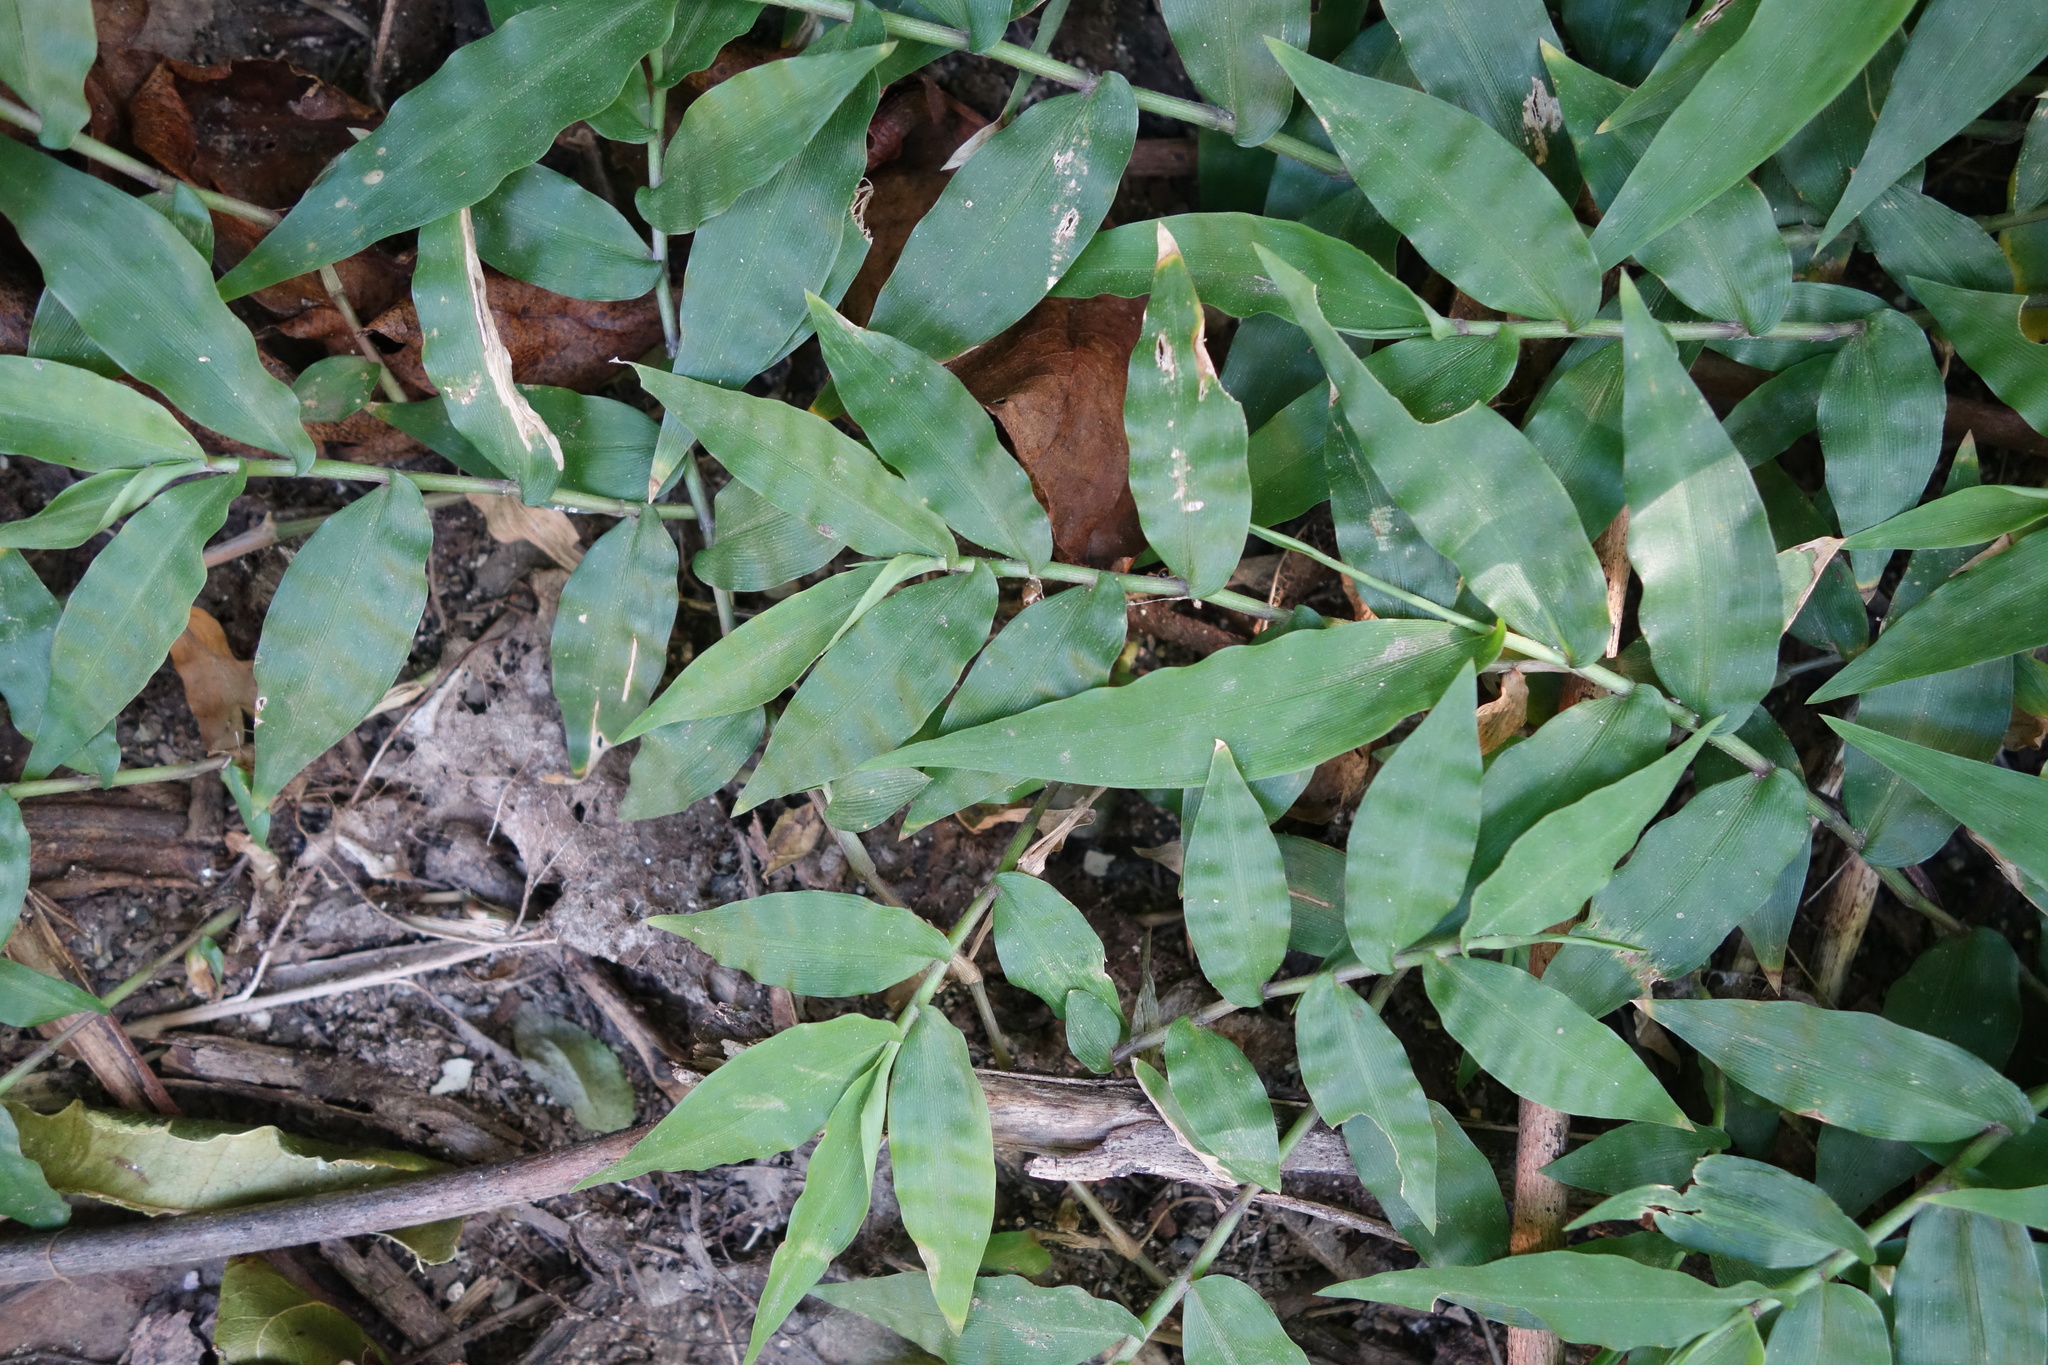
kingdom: Plantae
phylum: Tracheophyta
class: Liliopsida
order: Poales
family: Poaceae
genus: Oplismenus
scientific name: Oplismenus compositus
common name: Running mountain grass
